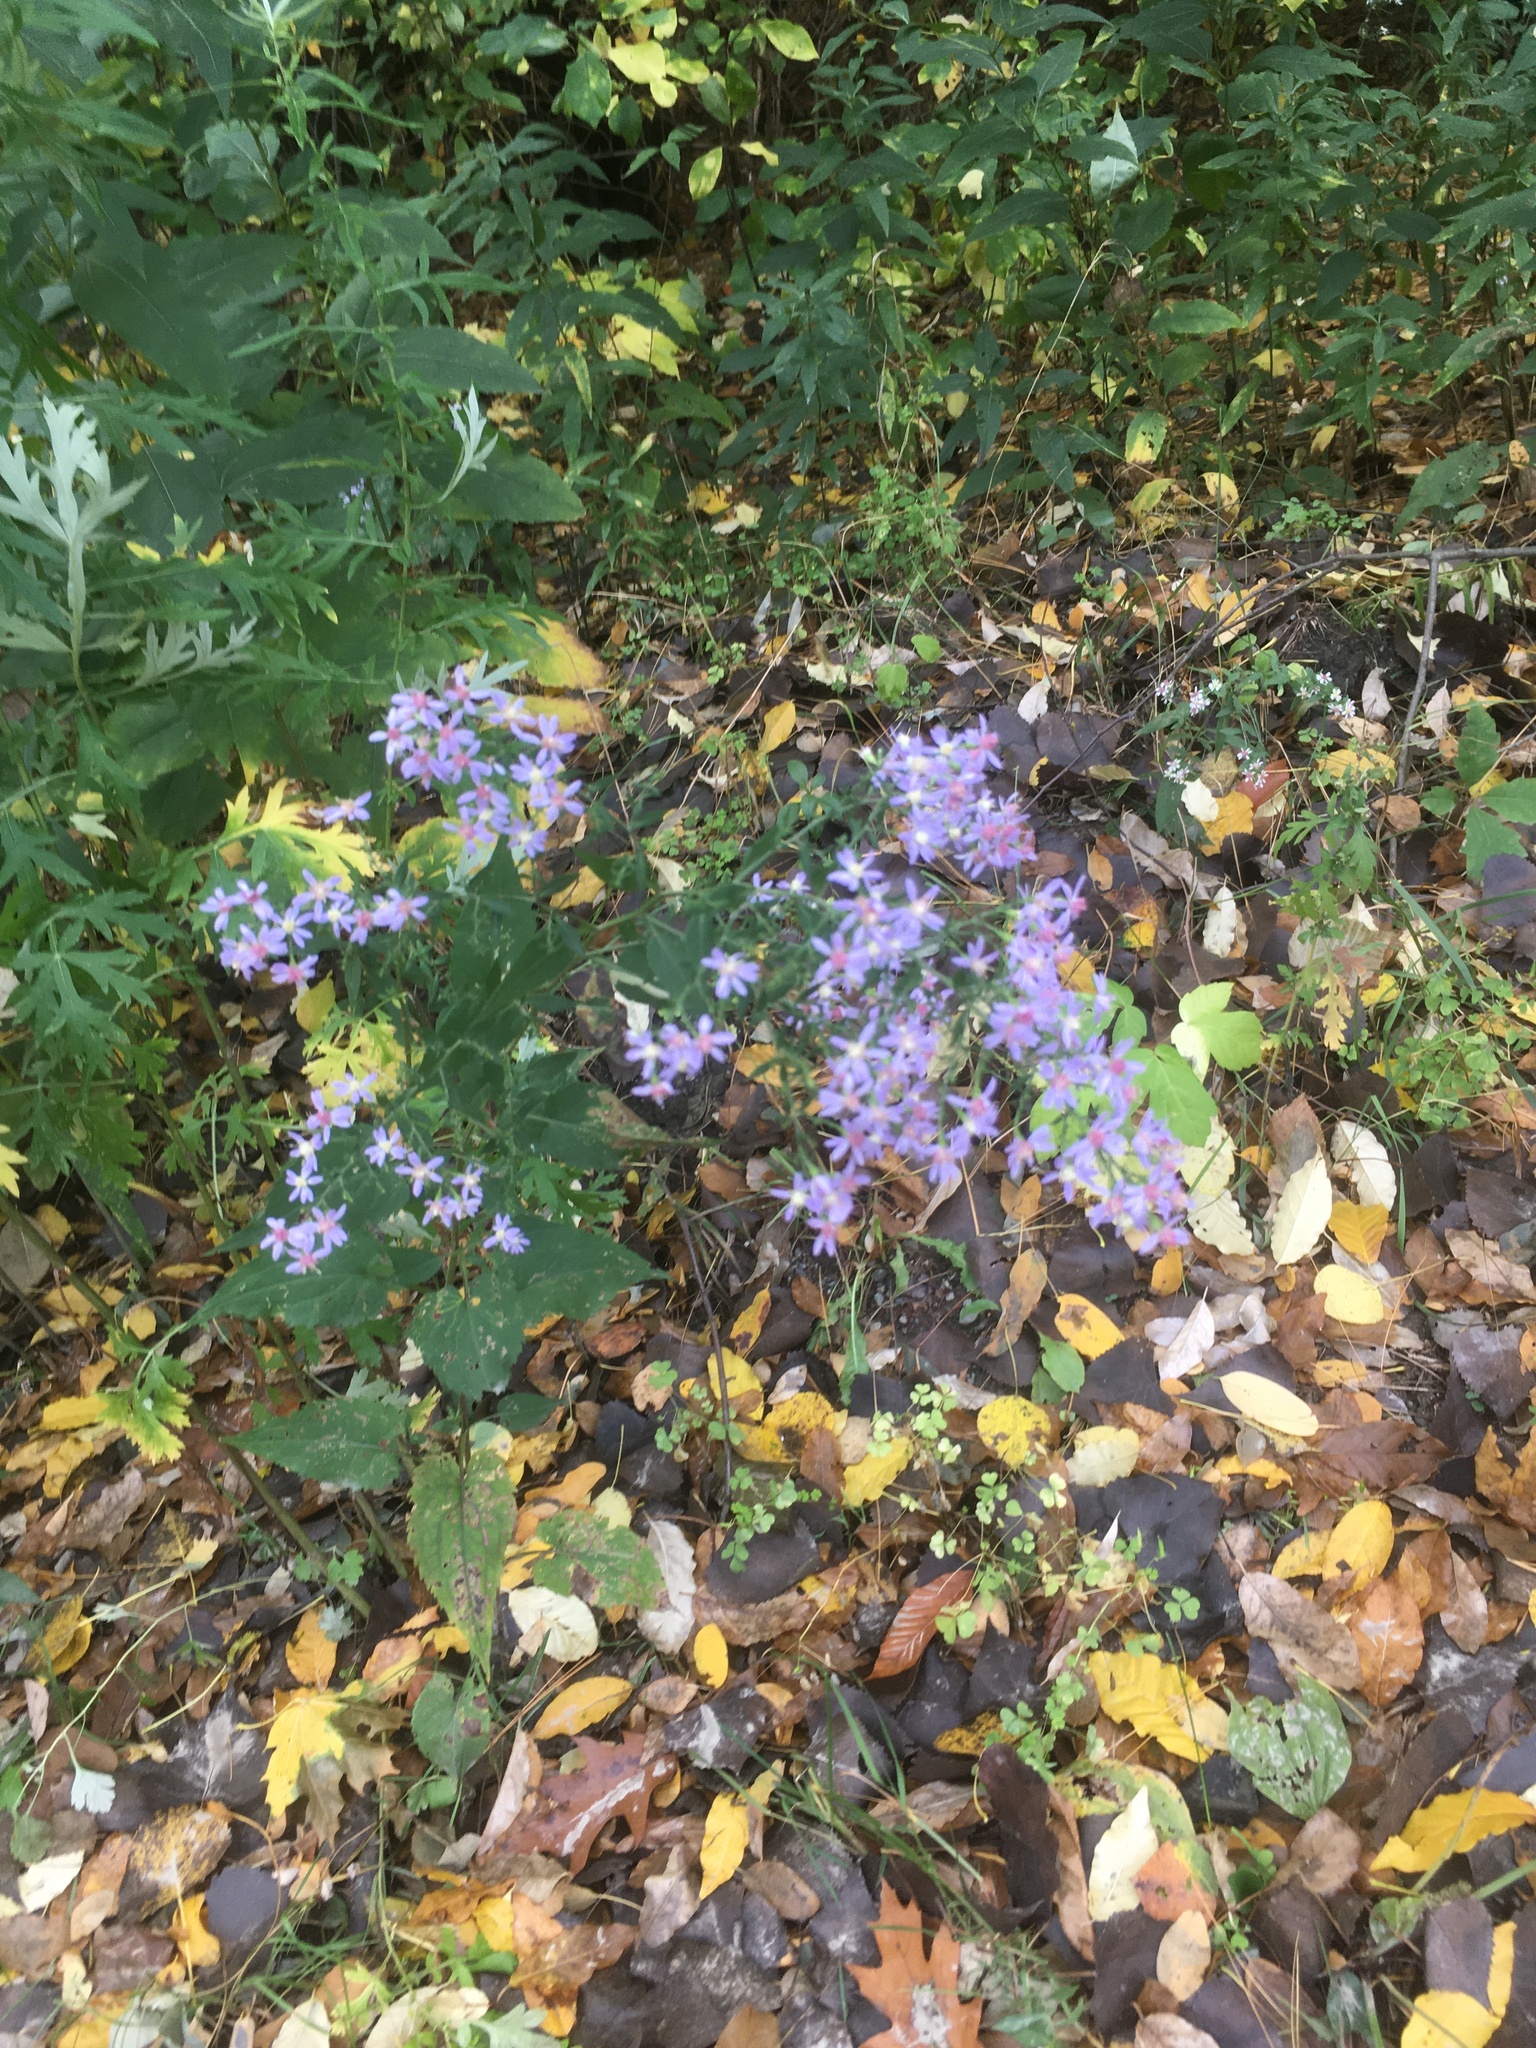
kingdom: Plantae
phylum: Tracheophyta
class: Magnoliopsida
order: Asterales
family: Asteraceae
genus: Symphyotrichum
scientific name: Symphyotrichum cordifolium
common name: Beeweed
